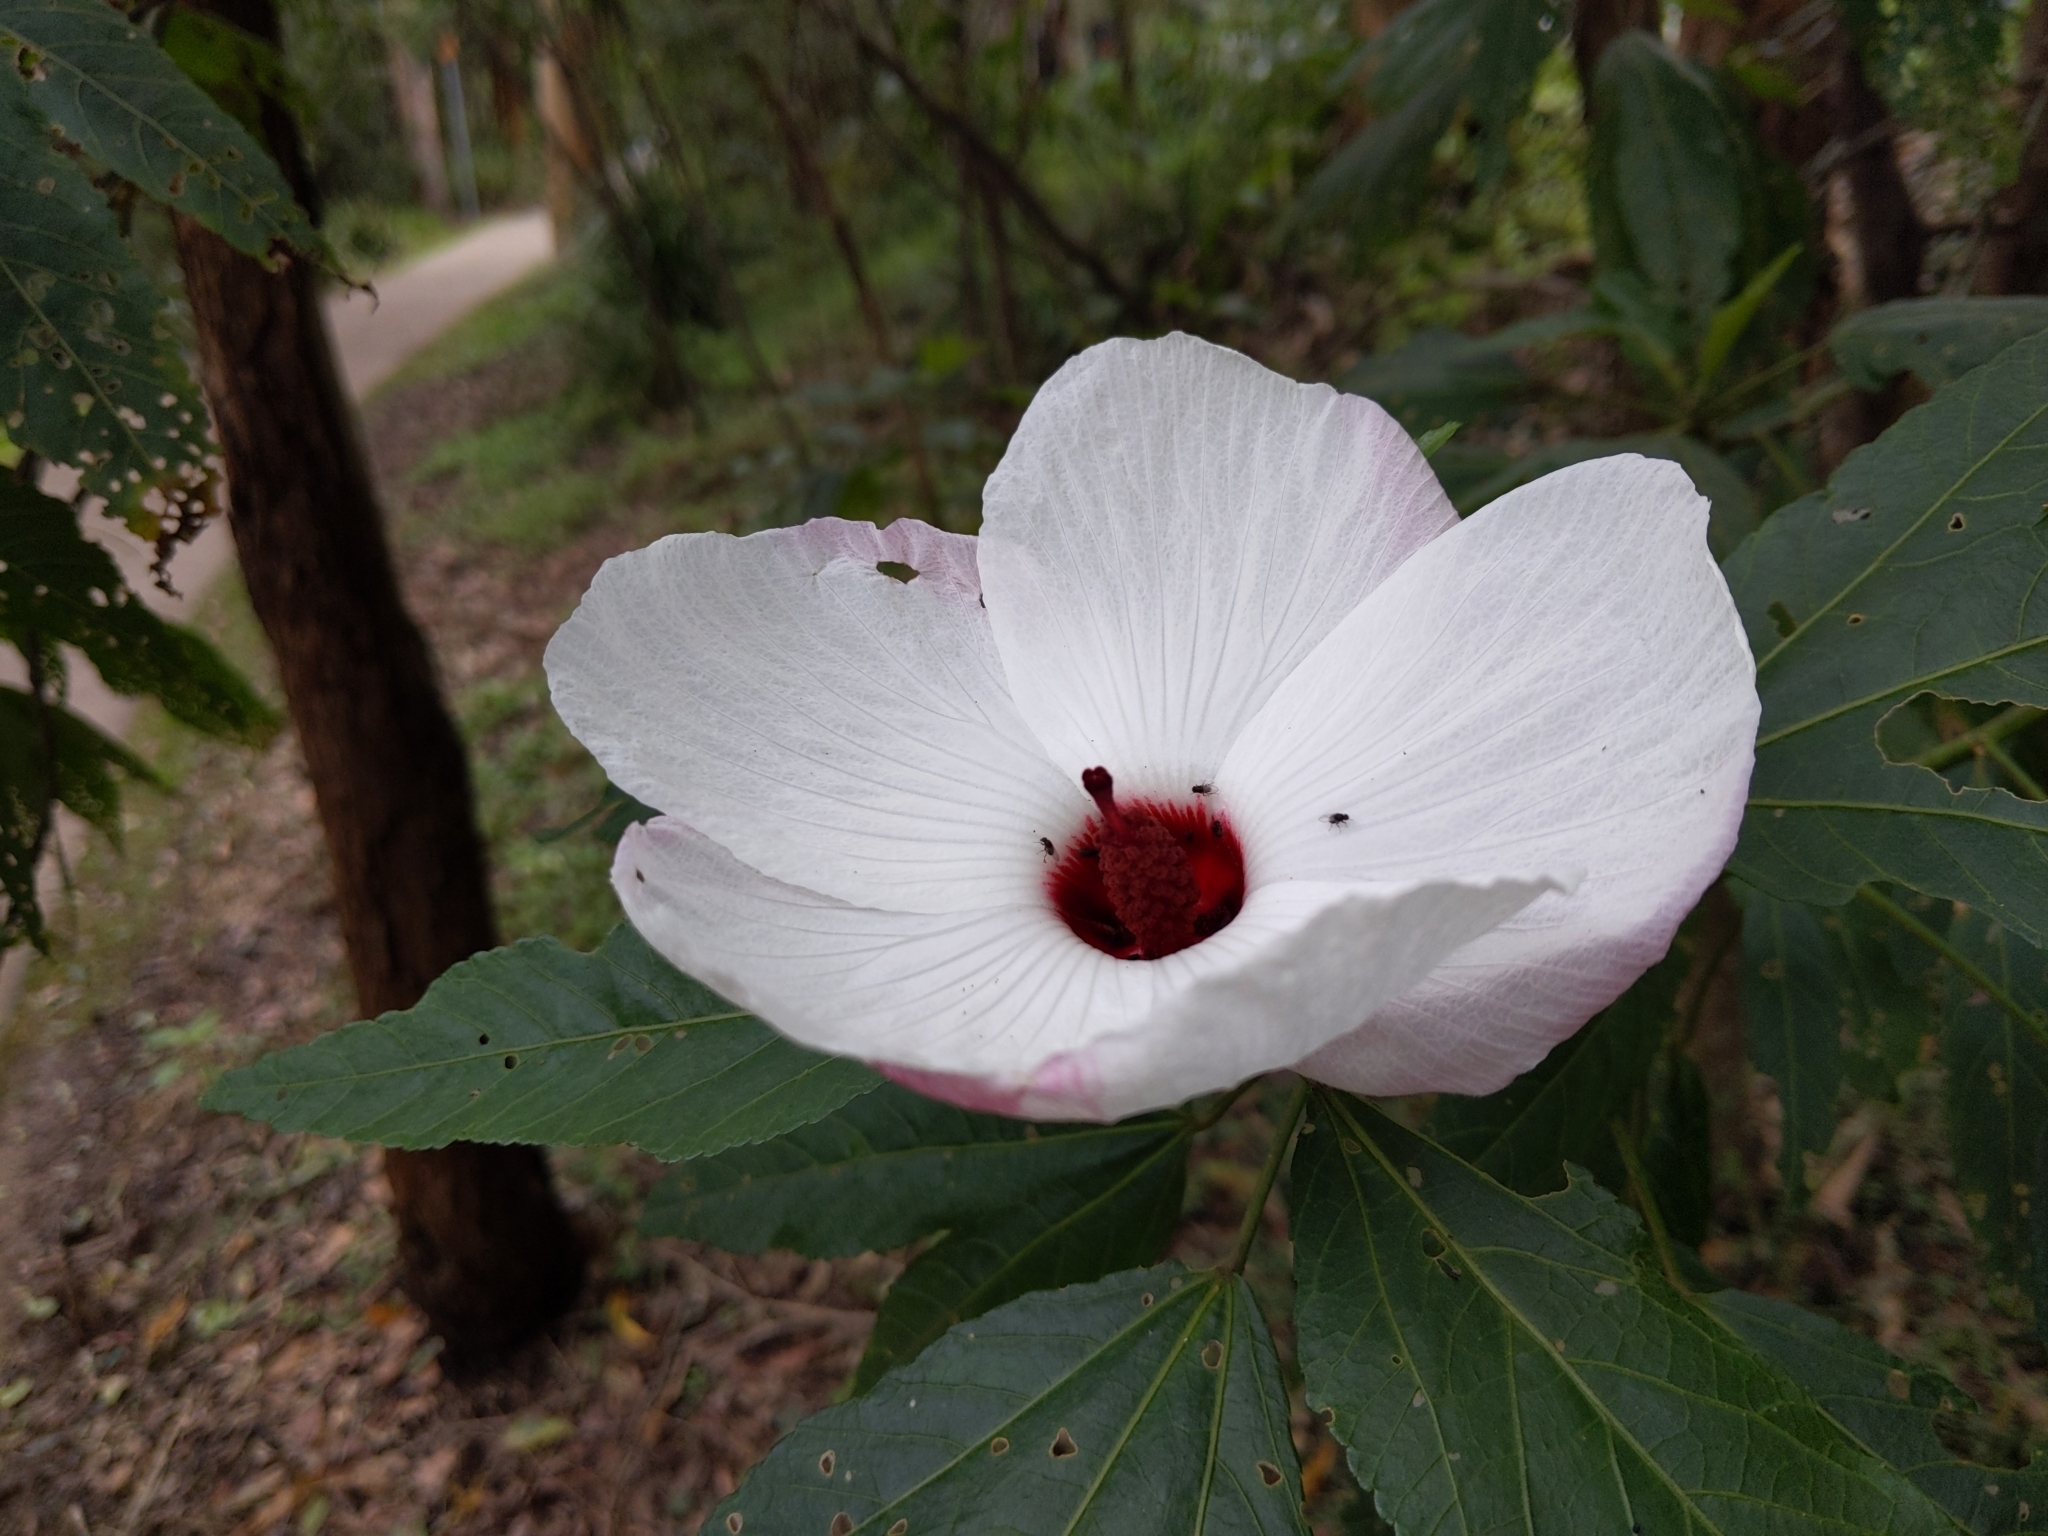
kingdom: Plantae
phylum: Tracheophyta
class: Magnoliopsida
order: Malvales
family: Malvaceae
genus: Hibiscus
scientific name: Hibiscus heterophyllus
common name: Queensland-sorrel
